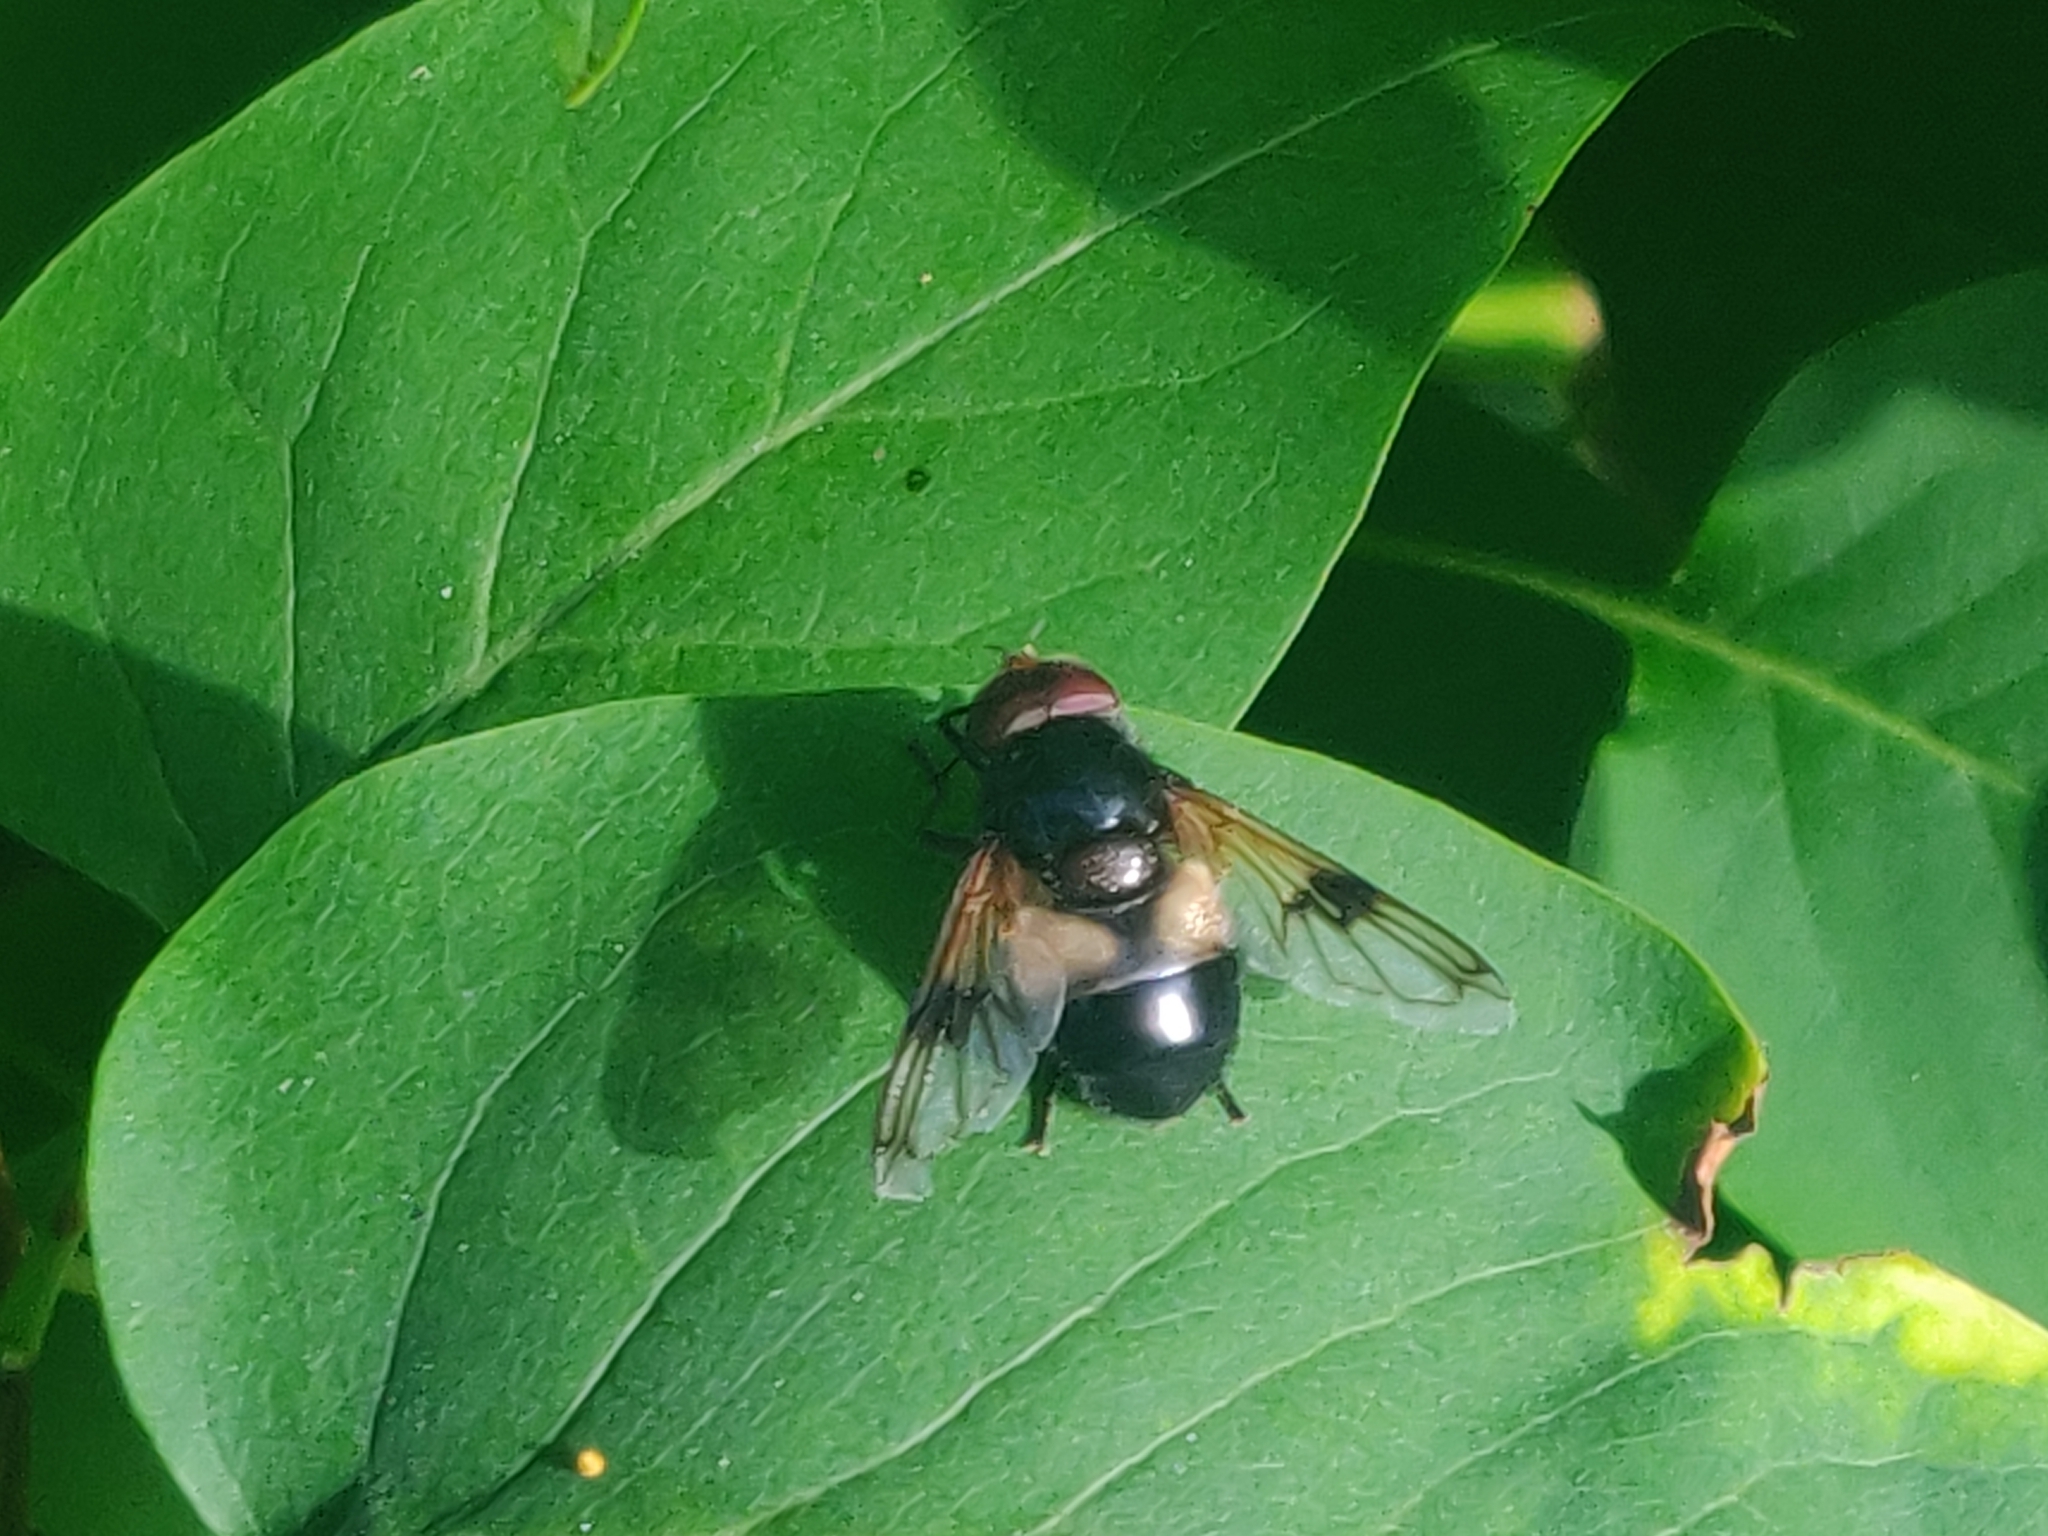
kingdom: Animalia
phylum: Arthropoda
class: Insecta
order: Diptera
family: Syrphidae
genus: Volucella
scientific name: Volucella pellucens
